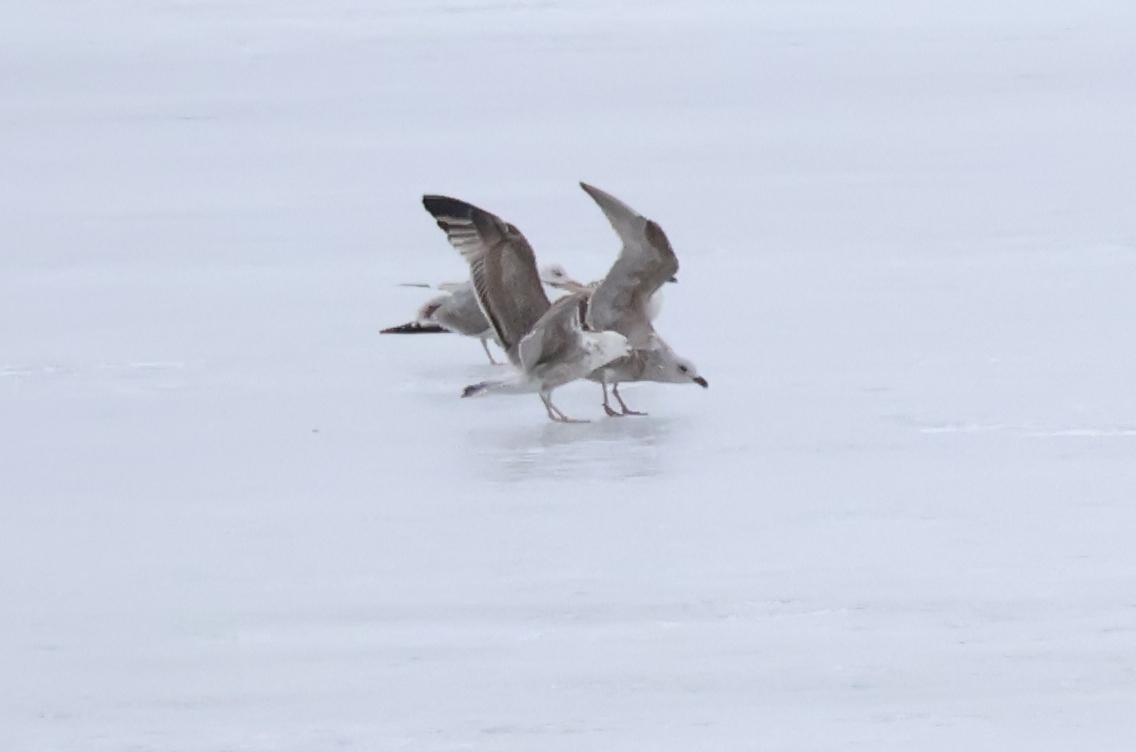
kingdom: Animalia
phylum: Chordata
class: Aves
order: Charadriiformes
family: Laridae
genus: Larus
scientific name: Larus argentatus
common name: Herring gull
